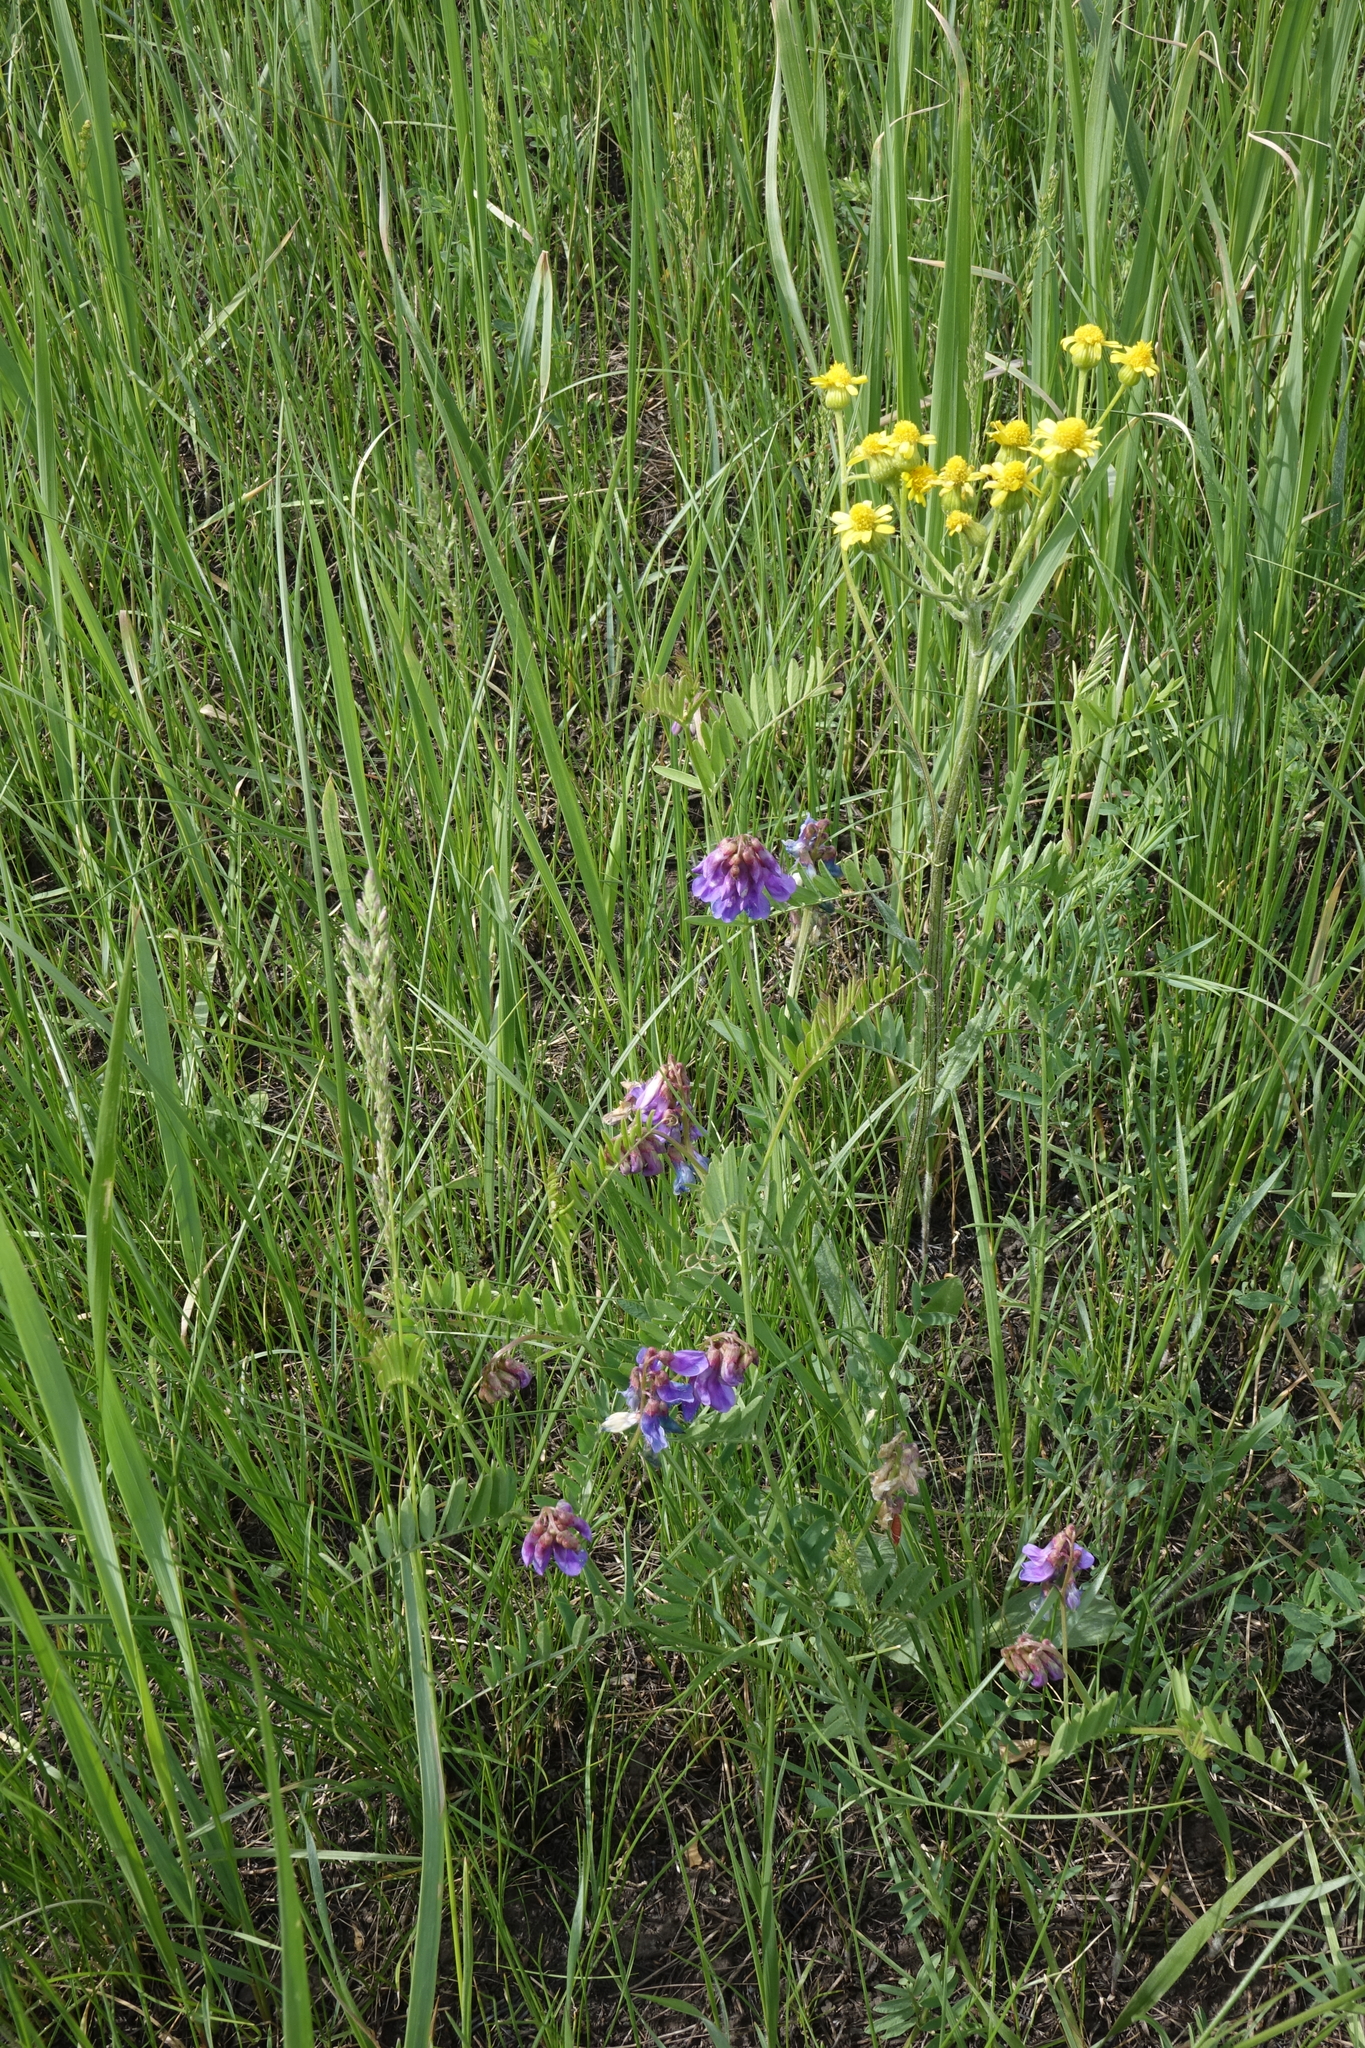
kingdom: Plantae
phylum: Tracheophyta
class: Magnoliopsida
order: Fabales
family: Fabaceae
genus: Vicia
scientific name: Vicia multicaulis
